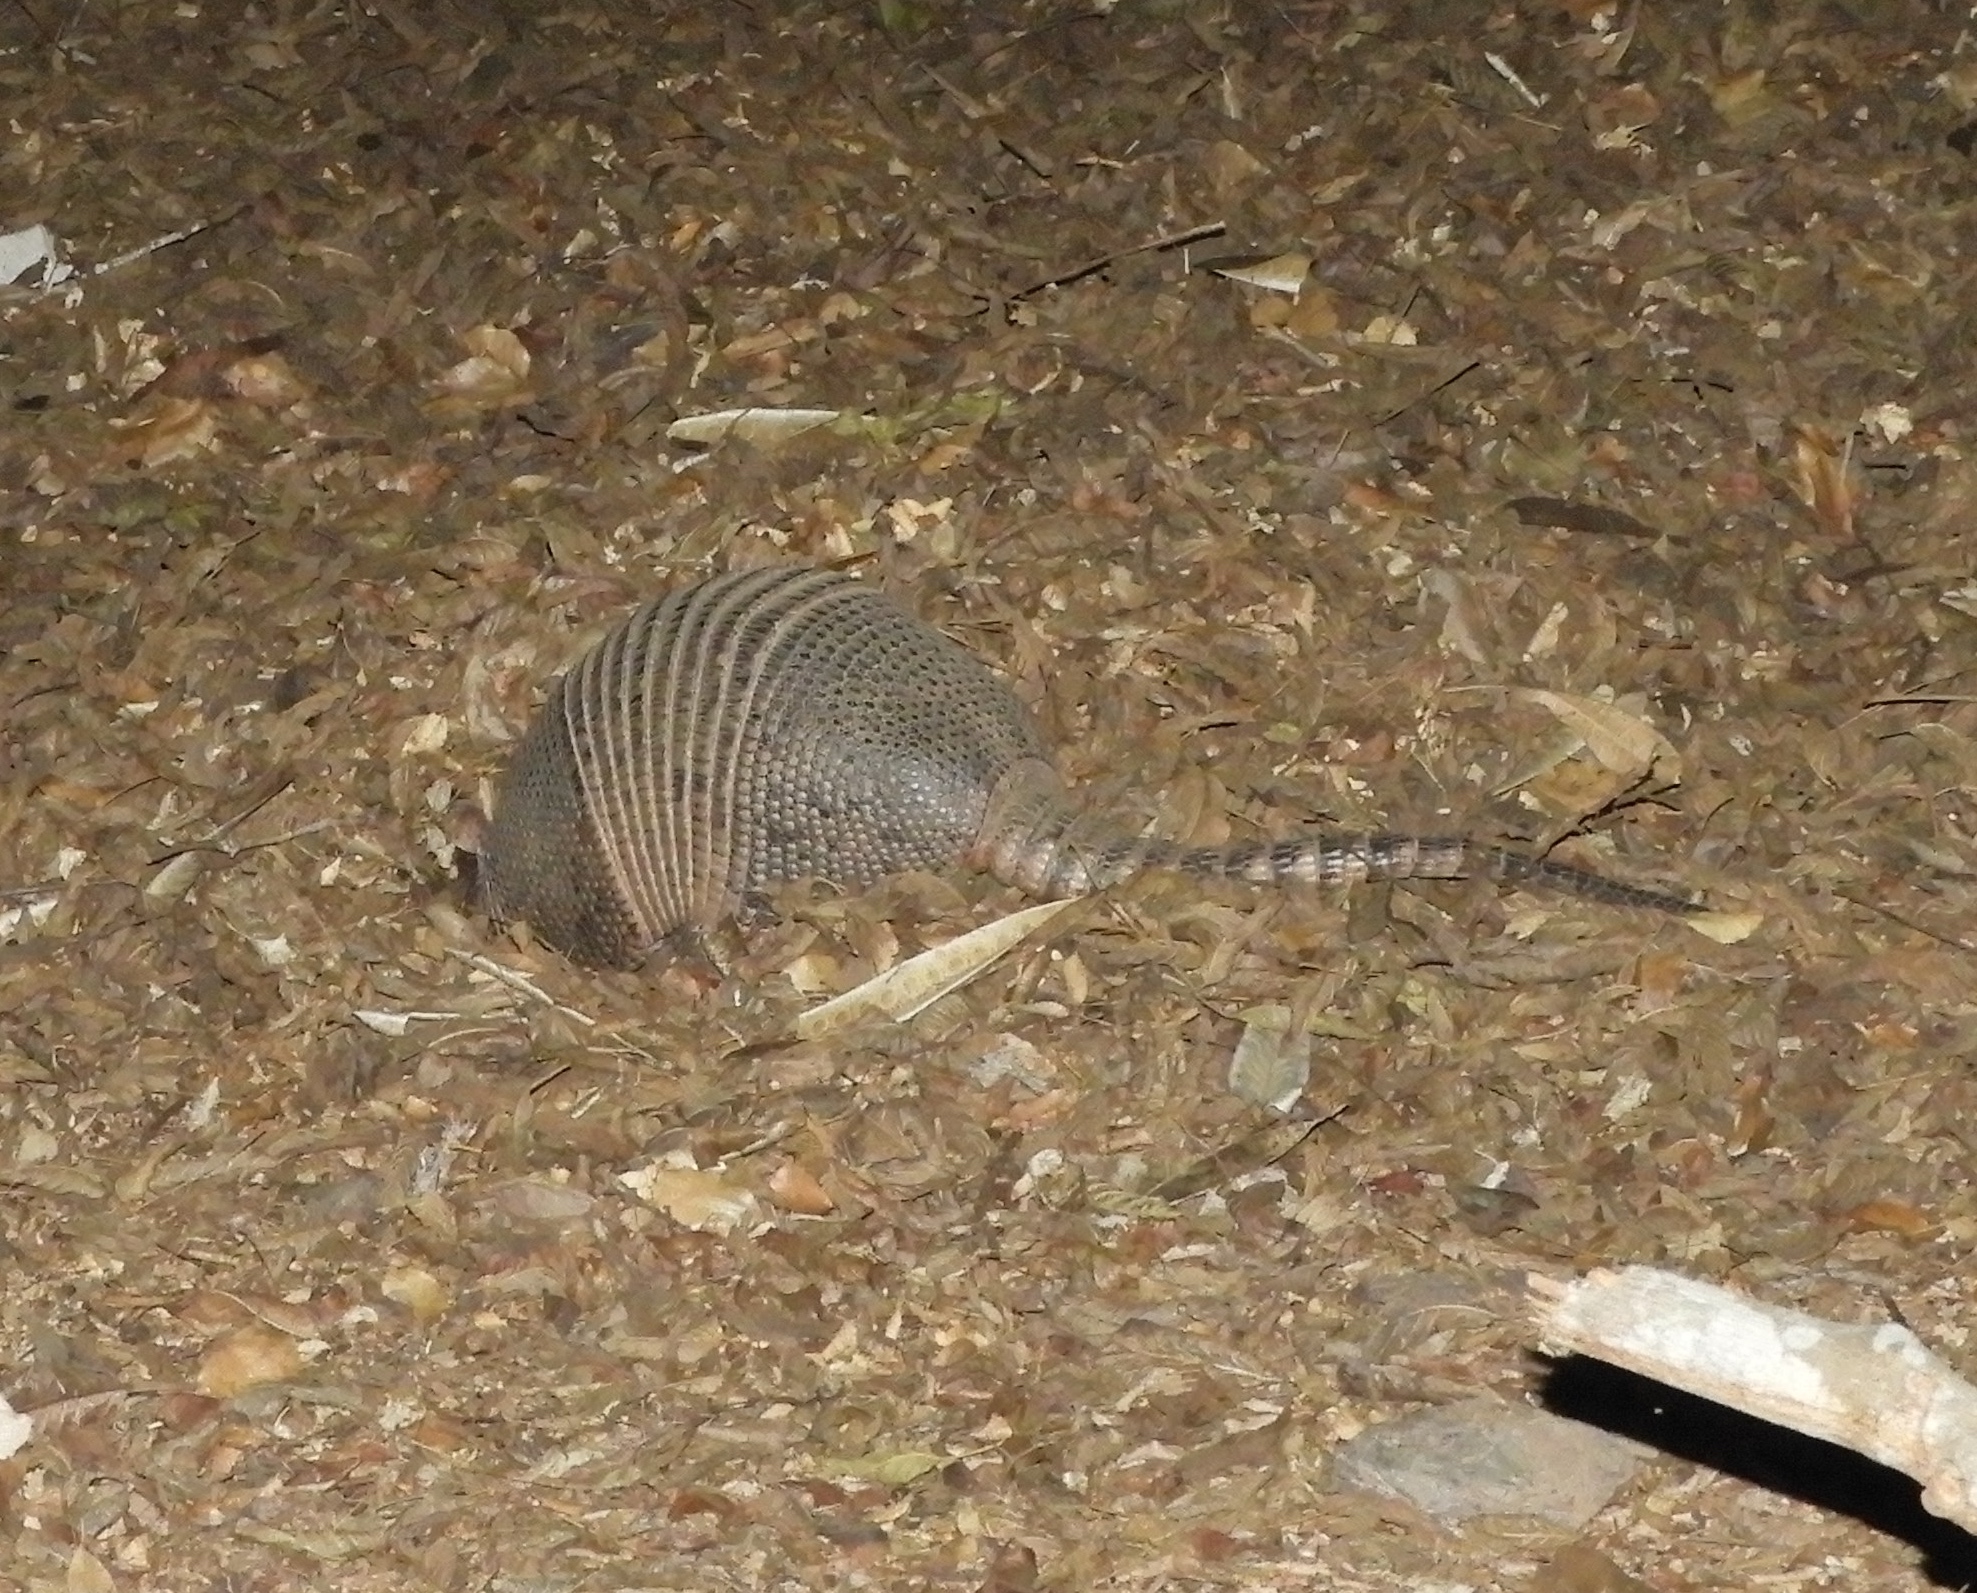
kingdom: Animalia
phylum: Chordata
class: Mammalia
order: Cingulata
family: Dasypodidae
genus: Dasypus
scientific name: Dasypus novemcinctus
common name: Nine-banded armadillo
